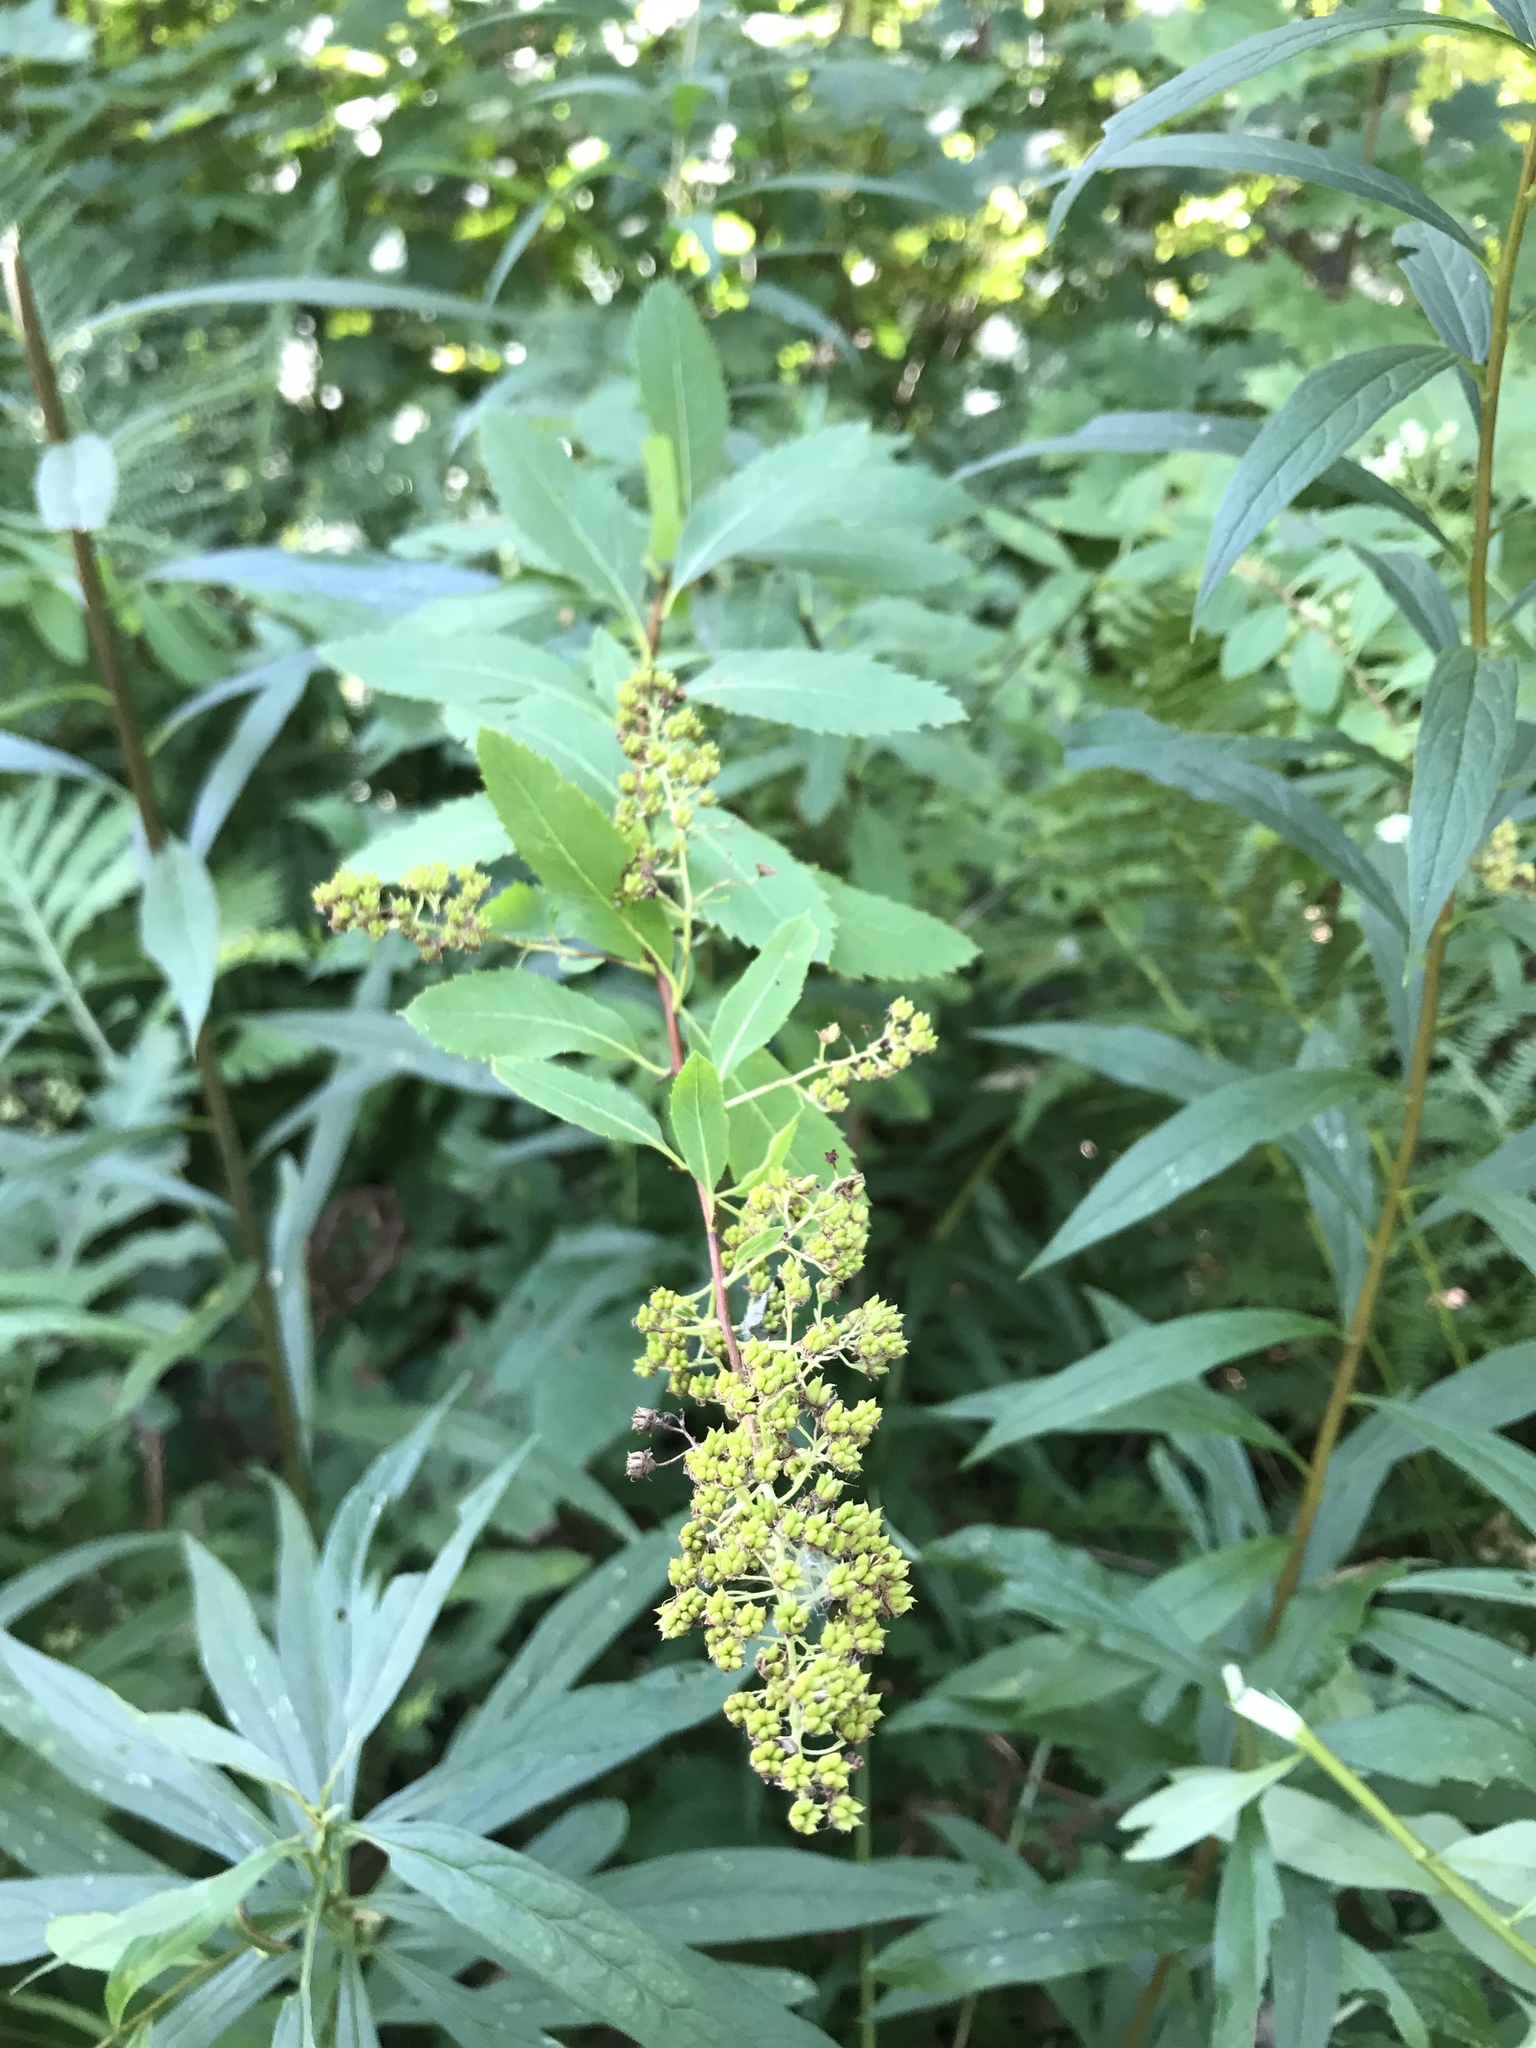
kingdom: Plantae
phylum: Tracheophyta
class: Magnoliopsida
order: Rosales
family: Rosaceae
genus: Spiraea
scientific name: Spiraea alba
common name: Pale bridewort
